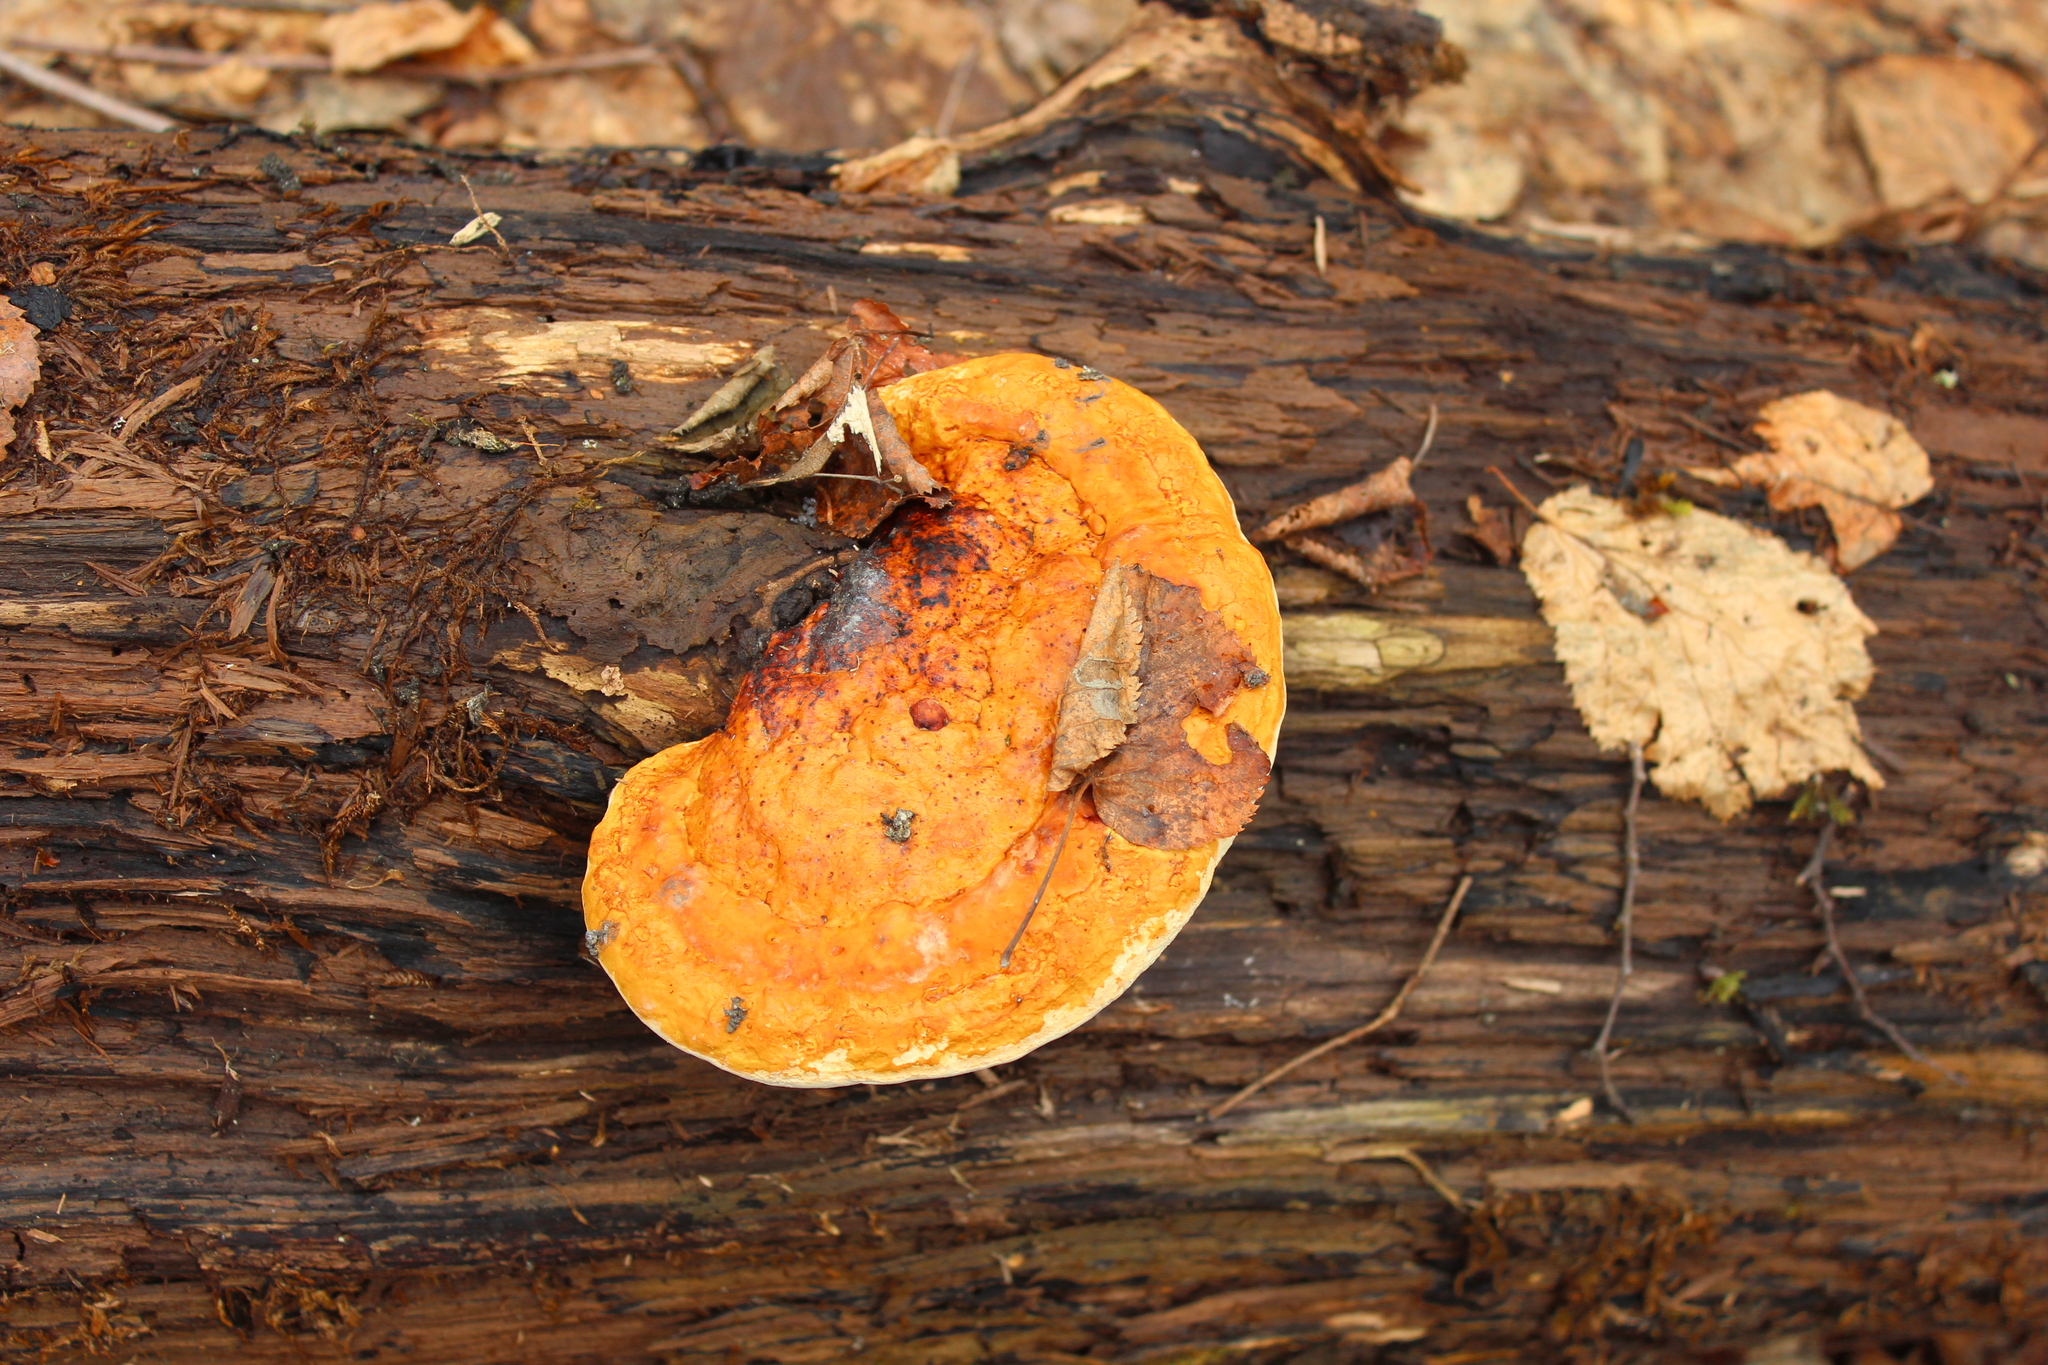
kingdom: Fungi
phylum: Basidiomycota
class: Agaricomycetes
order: Polyporales
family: Fomitopsidaceae
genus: Fomitopsis
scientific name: Fomitopsis pinicola
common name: Red-belted bracket
